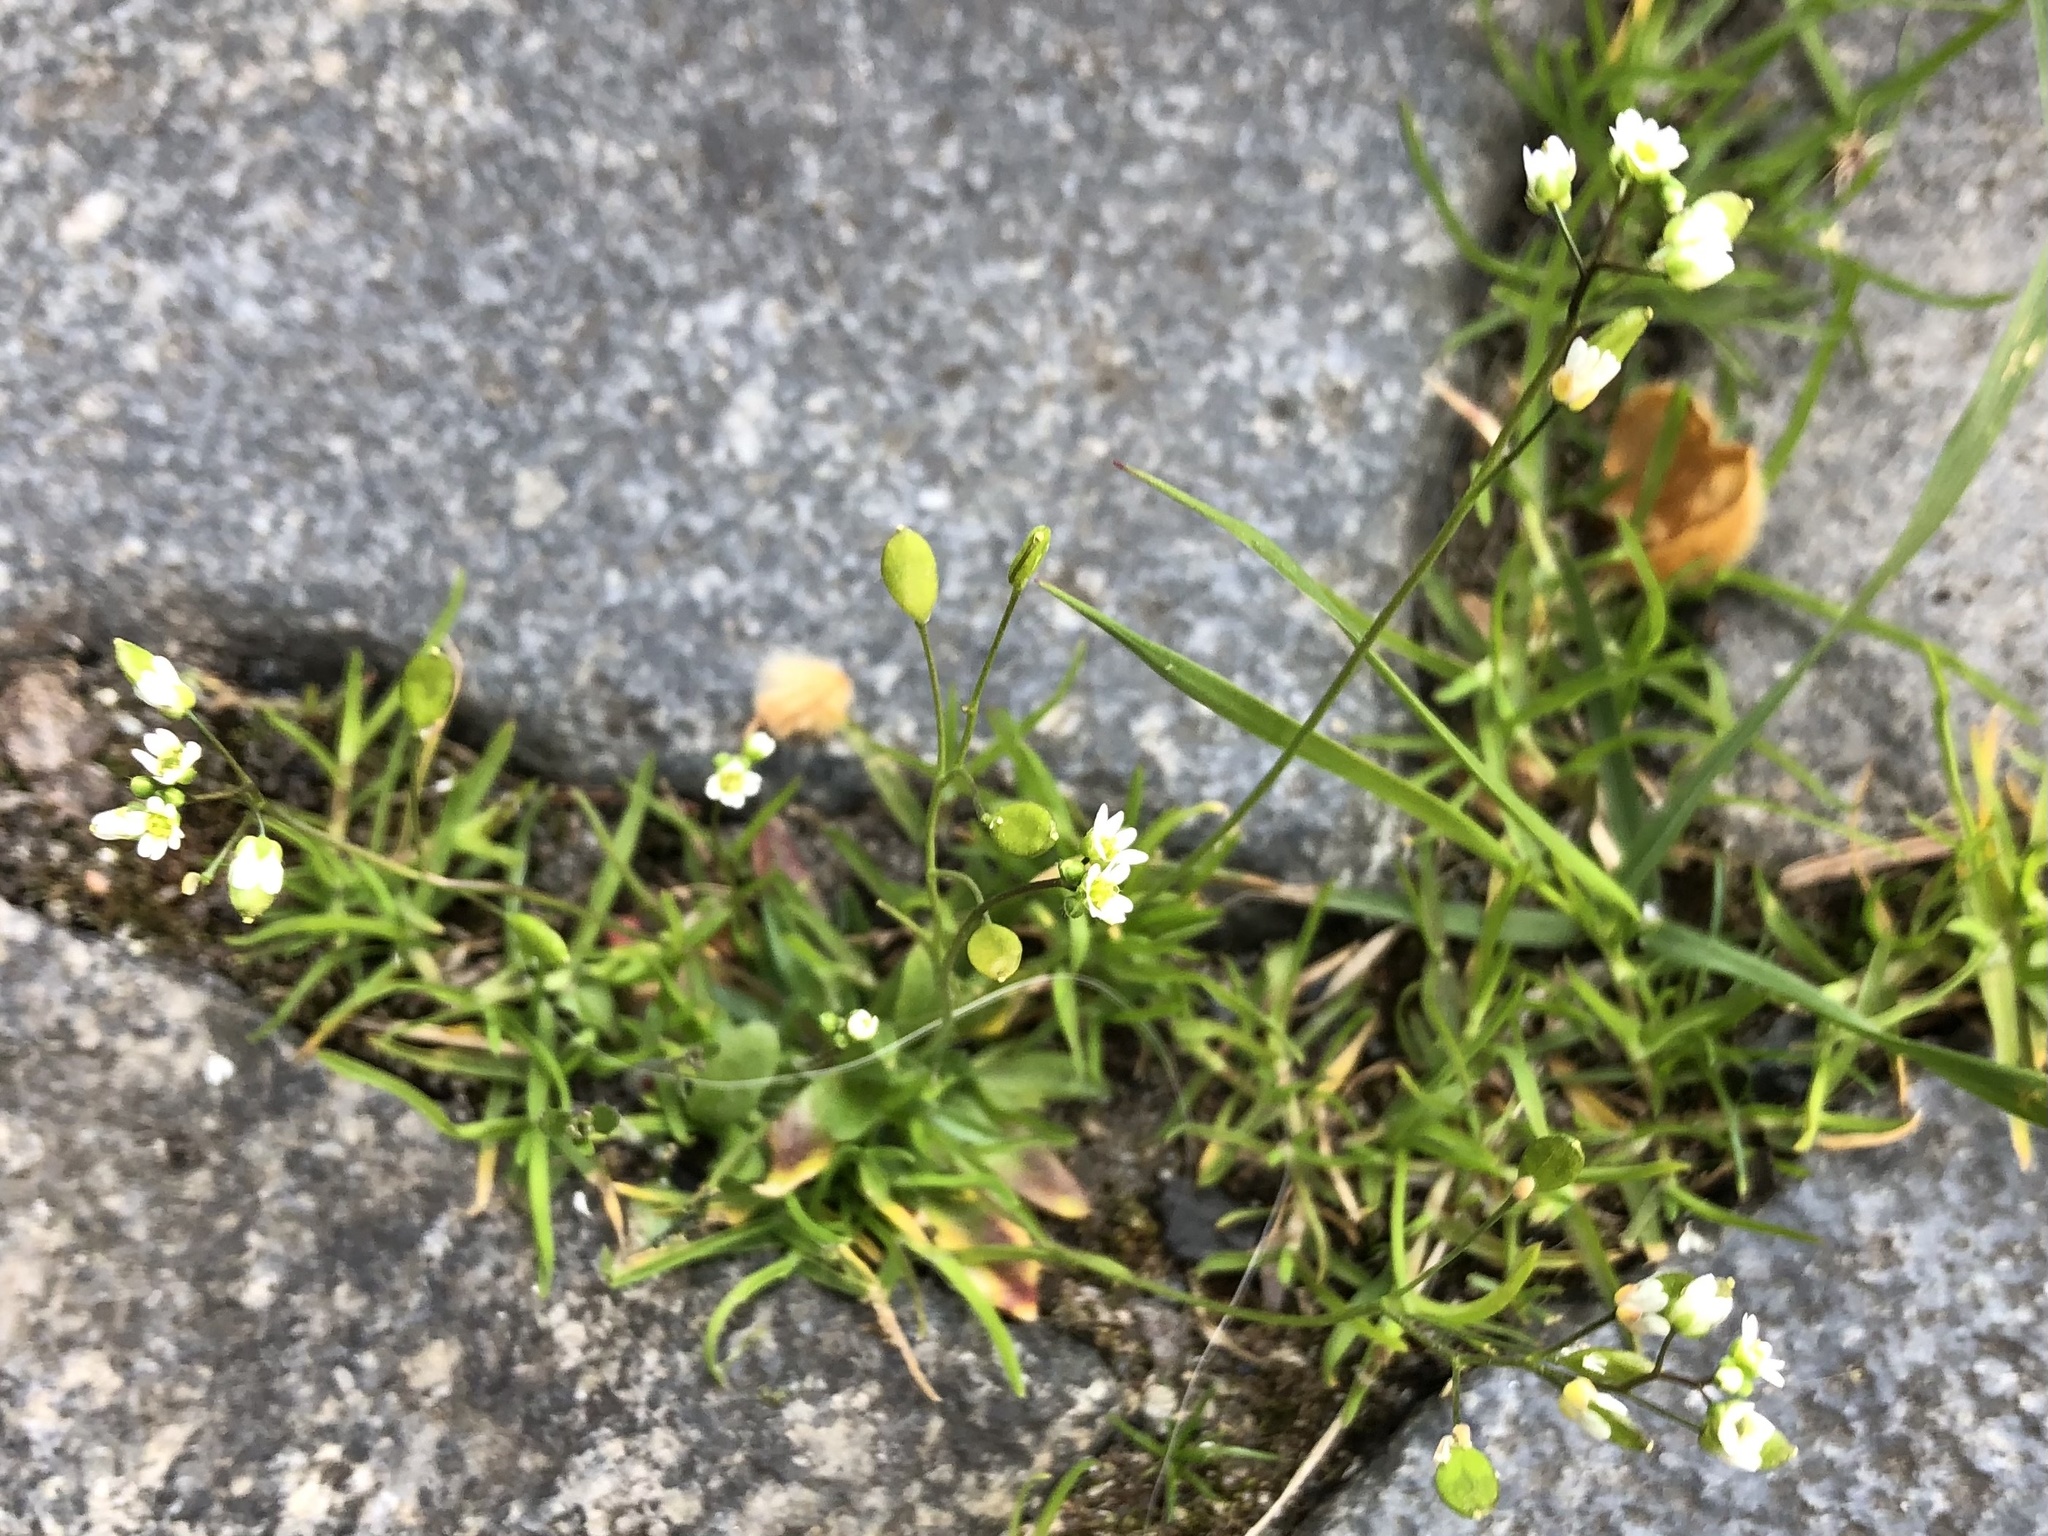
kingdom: Plantae
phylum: Tracheophyta
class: Magnoliopsida
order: Brassicales
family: Brassicaceae
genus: Draba
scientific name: Draba verna
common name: Spring draba
